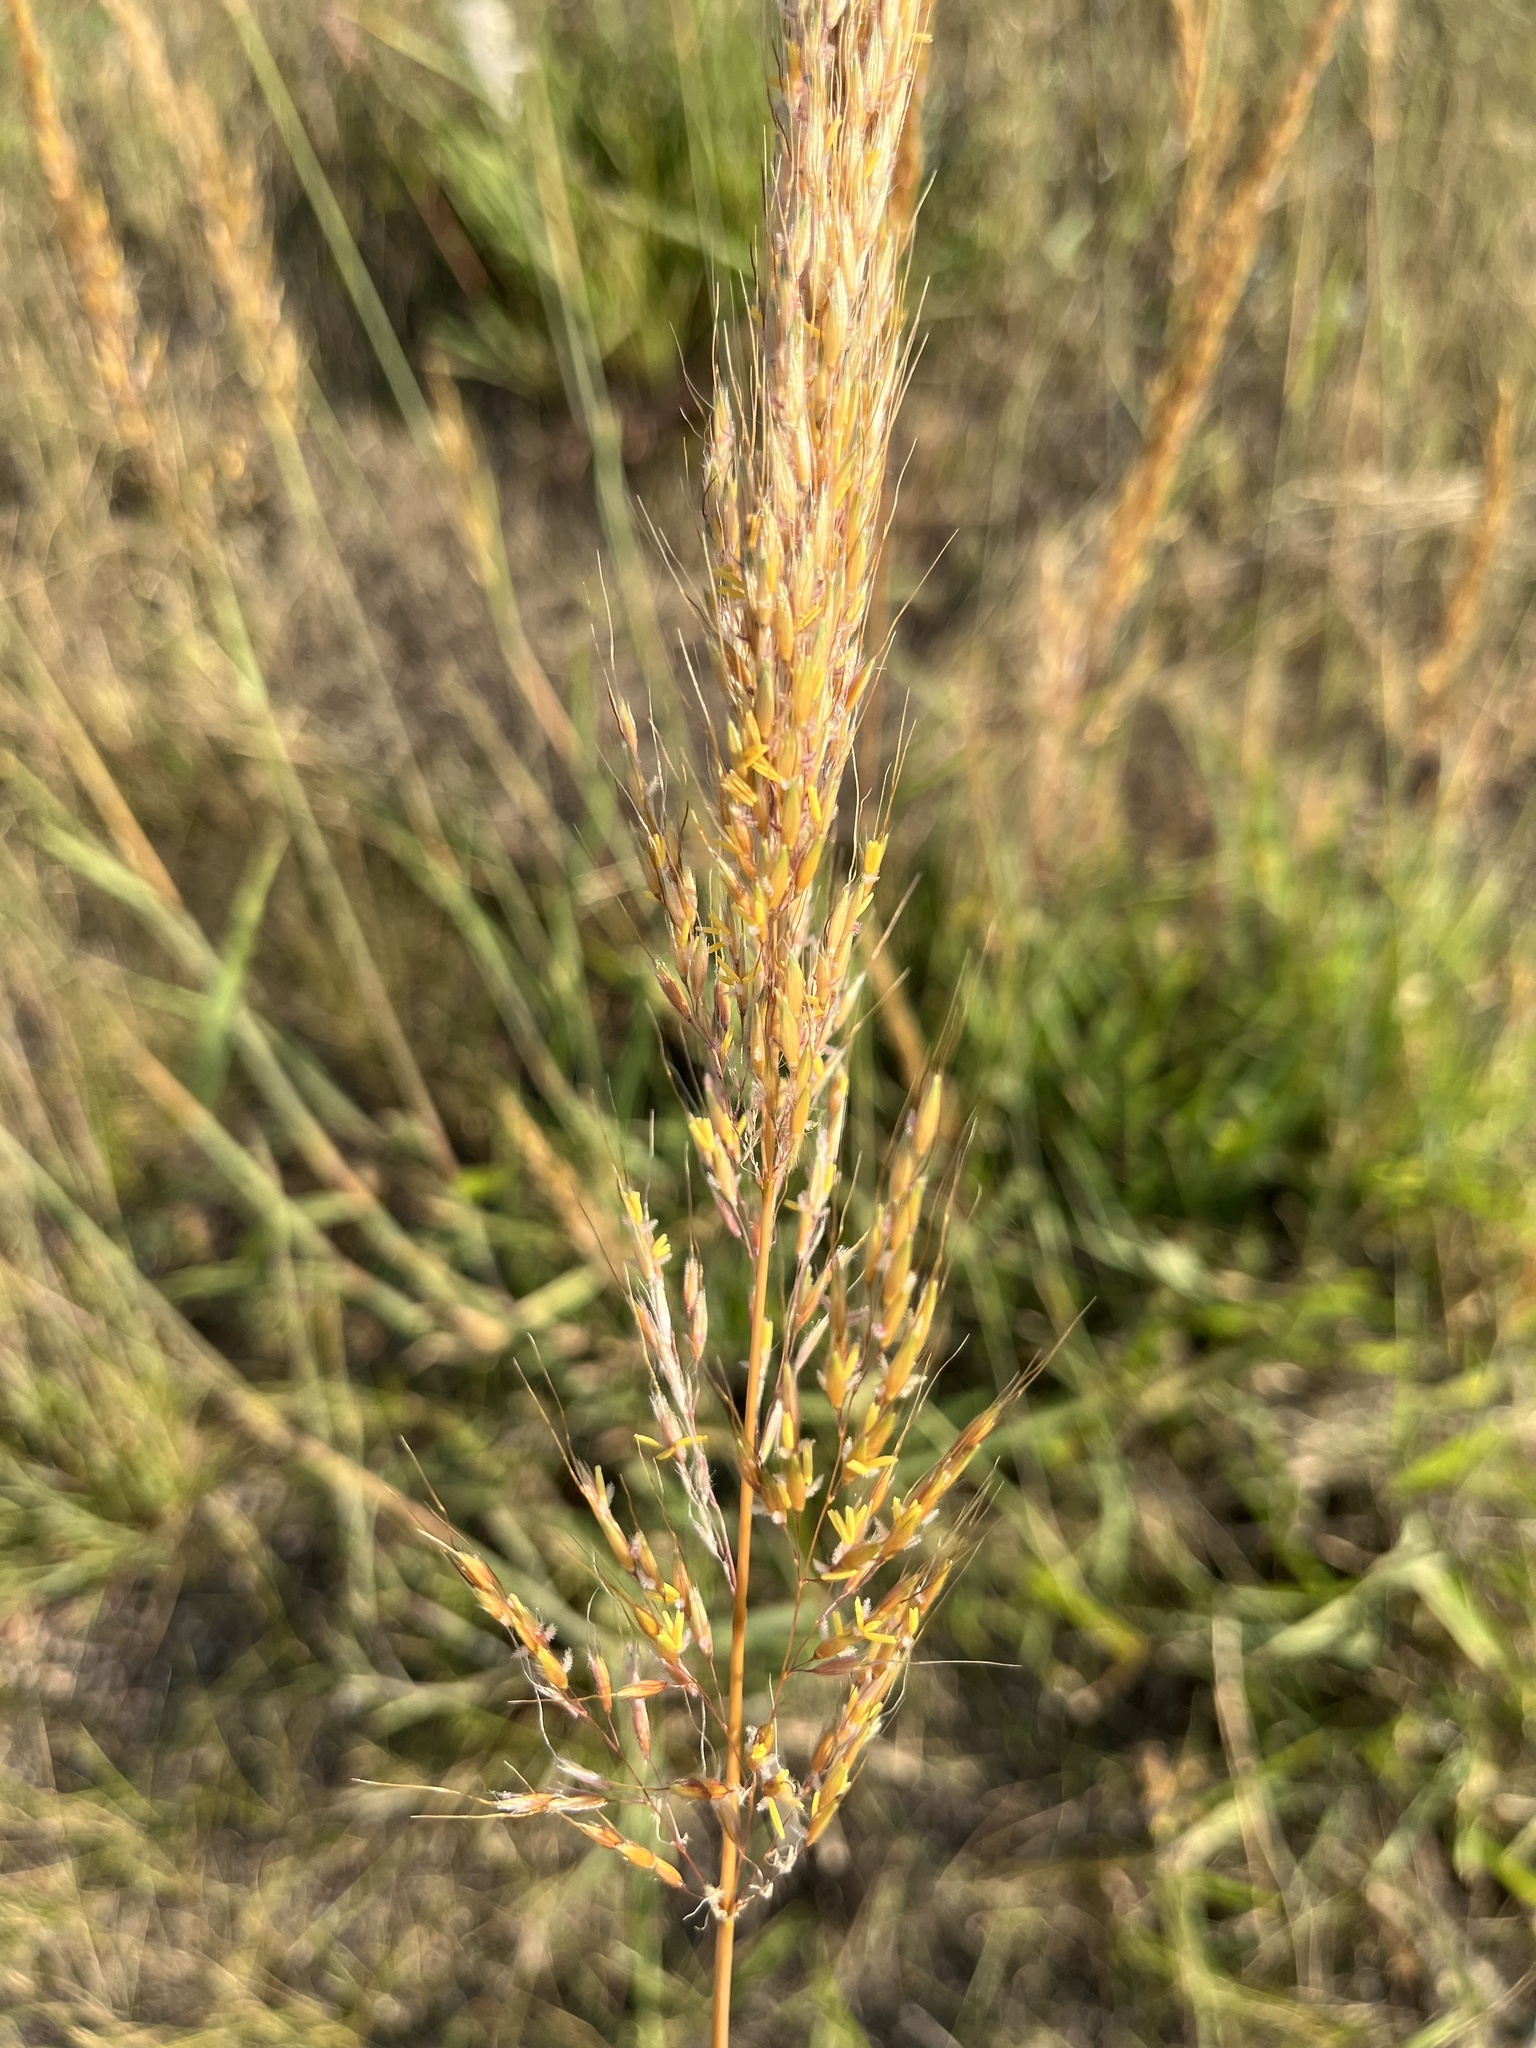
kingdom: Plantae
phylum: Tracheophyta
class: Liliopsida
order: Poales
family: Poaceae
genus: Sorghastrum
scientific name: Sorghastrum nutans
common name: Indian grass
